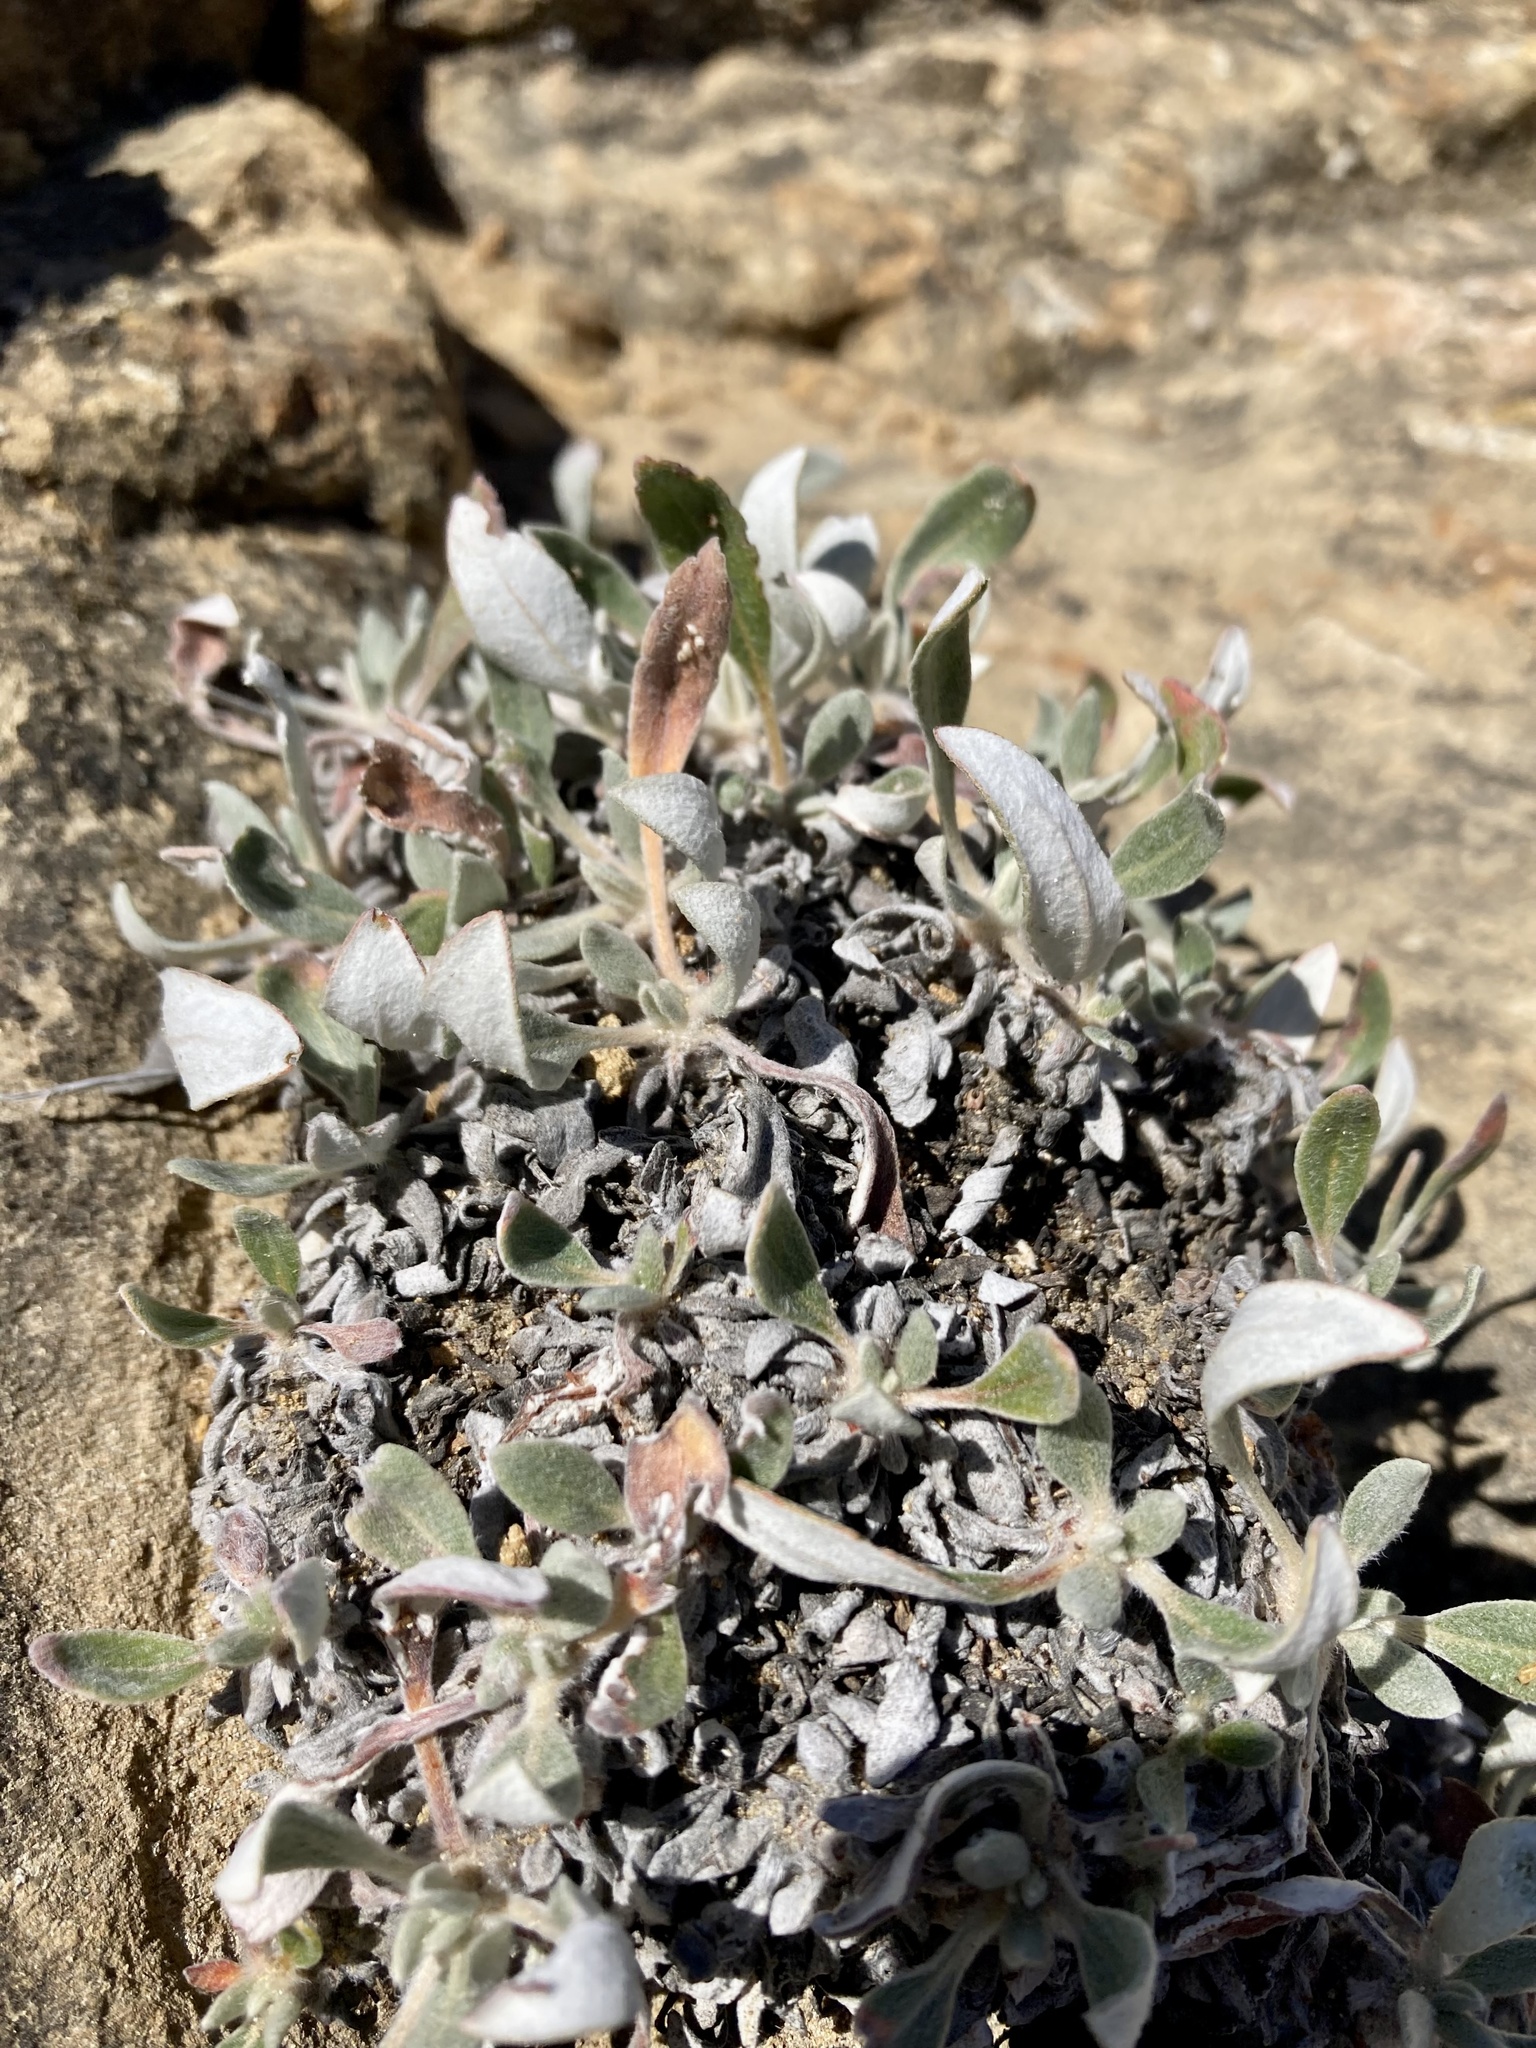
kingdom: Plantae
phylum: Tracheophyta
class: Magnoliopsida
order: Caryophyllales
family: Polygonaceae
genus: Eriogonum
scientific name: Eriogonum flavum
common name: Alpine golden wild buckwheat
